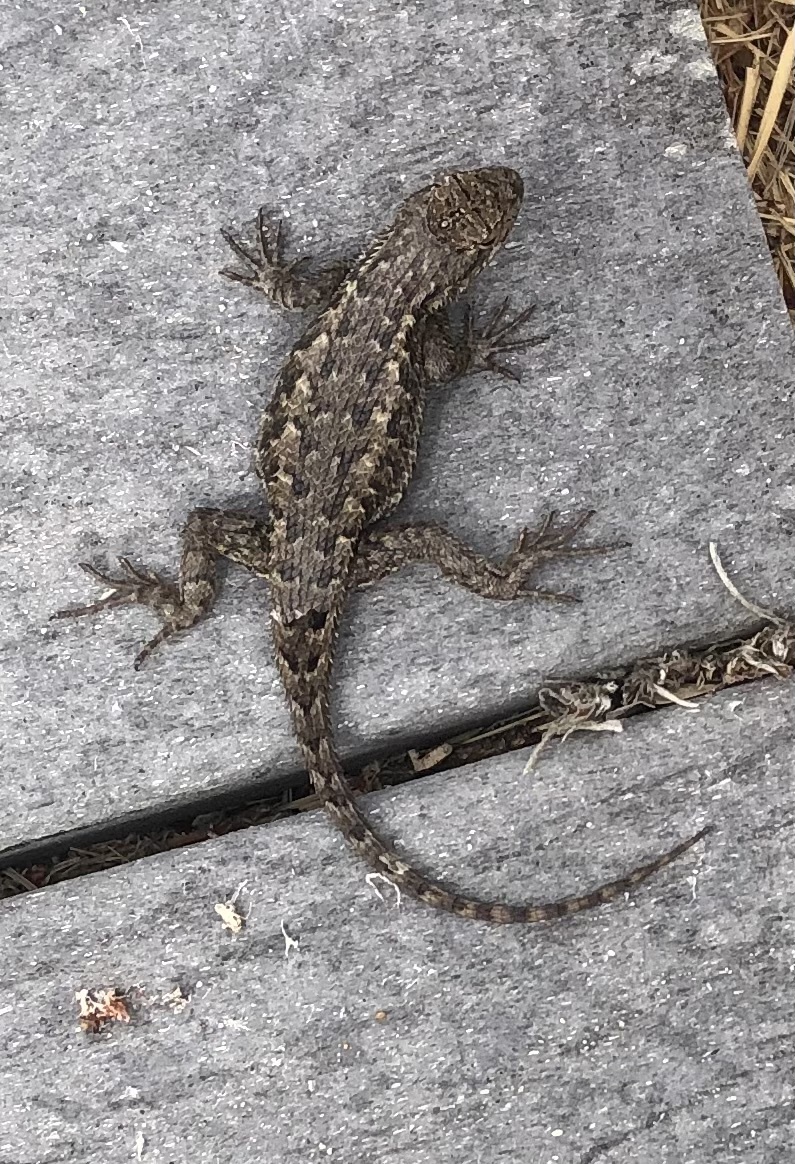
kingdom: Animalia
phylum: Chordata
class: Squamata
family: Phrynosomatidae
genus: Sceloporus
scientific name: Sceloporus occidentalis
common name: Western fence lizard
